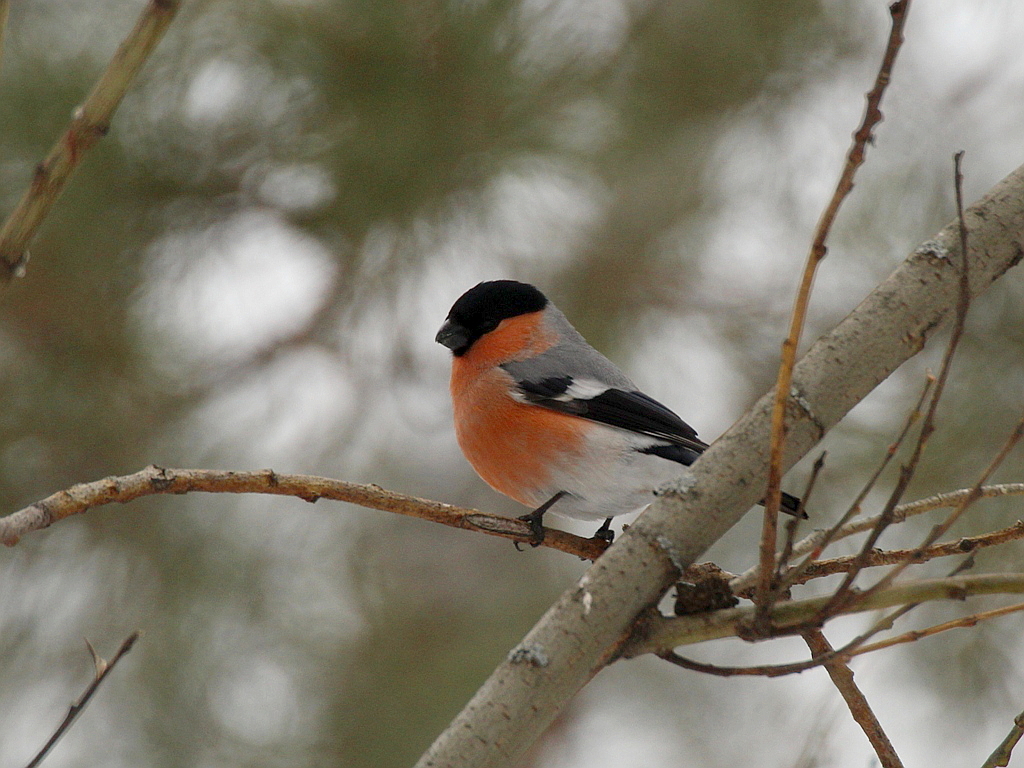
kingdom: Animalia
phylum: Chordata
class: Aves
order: Passeriformes
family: Fringillidae
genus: Pyrrhula
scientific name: Pyrrhula pyrrhula
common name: Eurasian bullfinch
